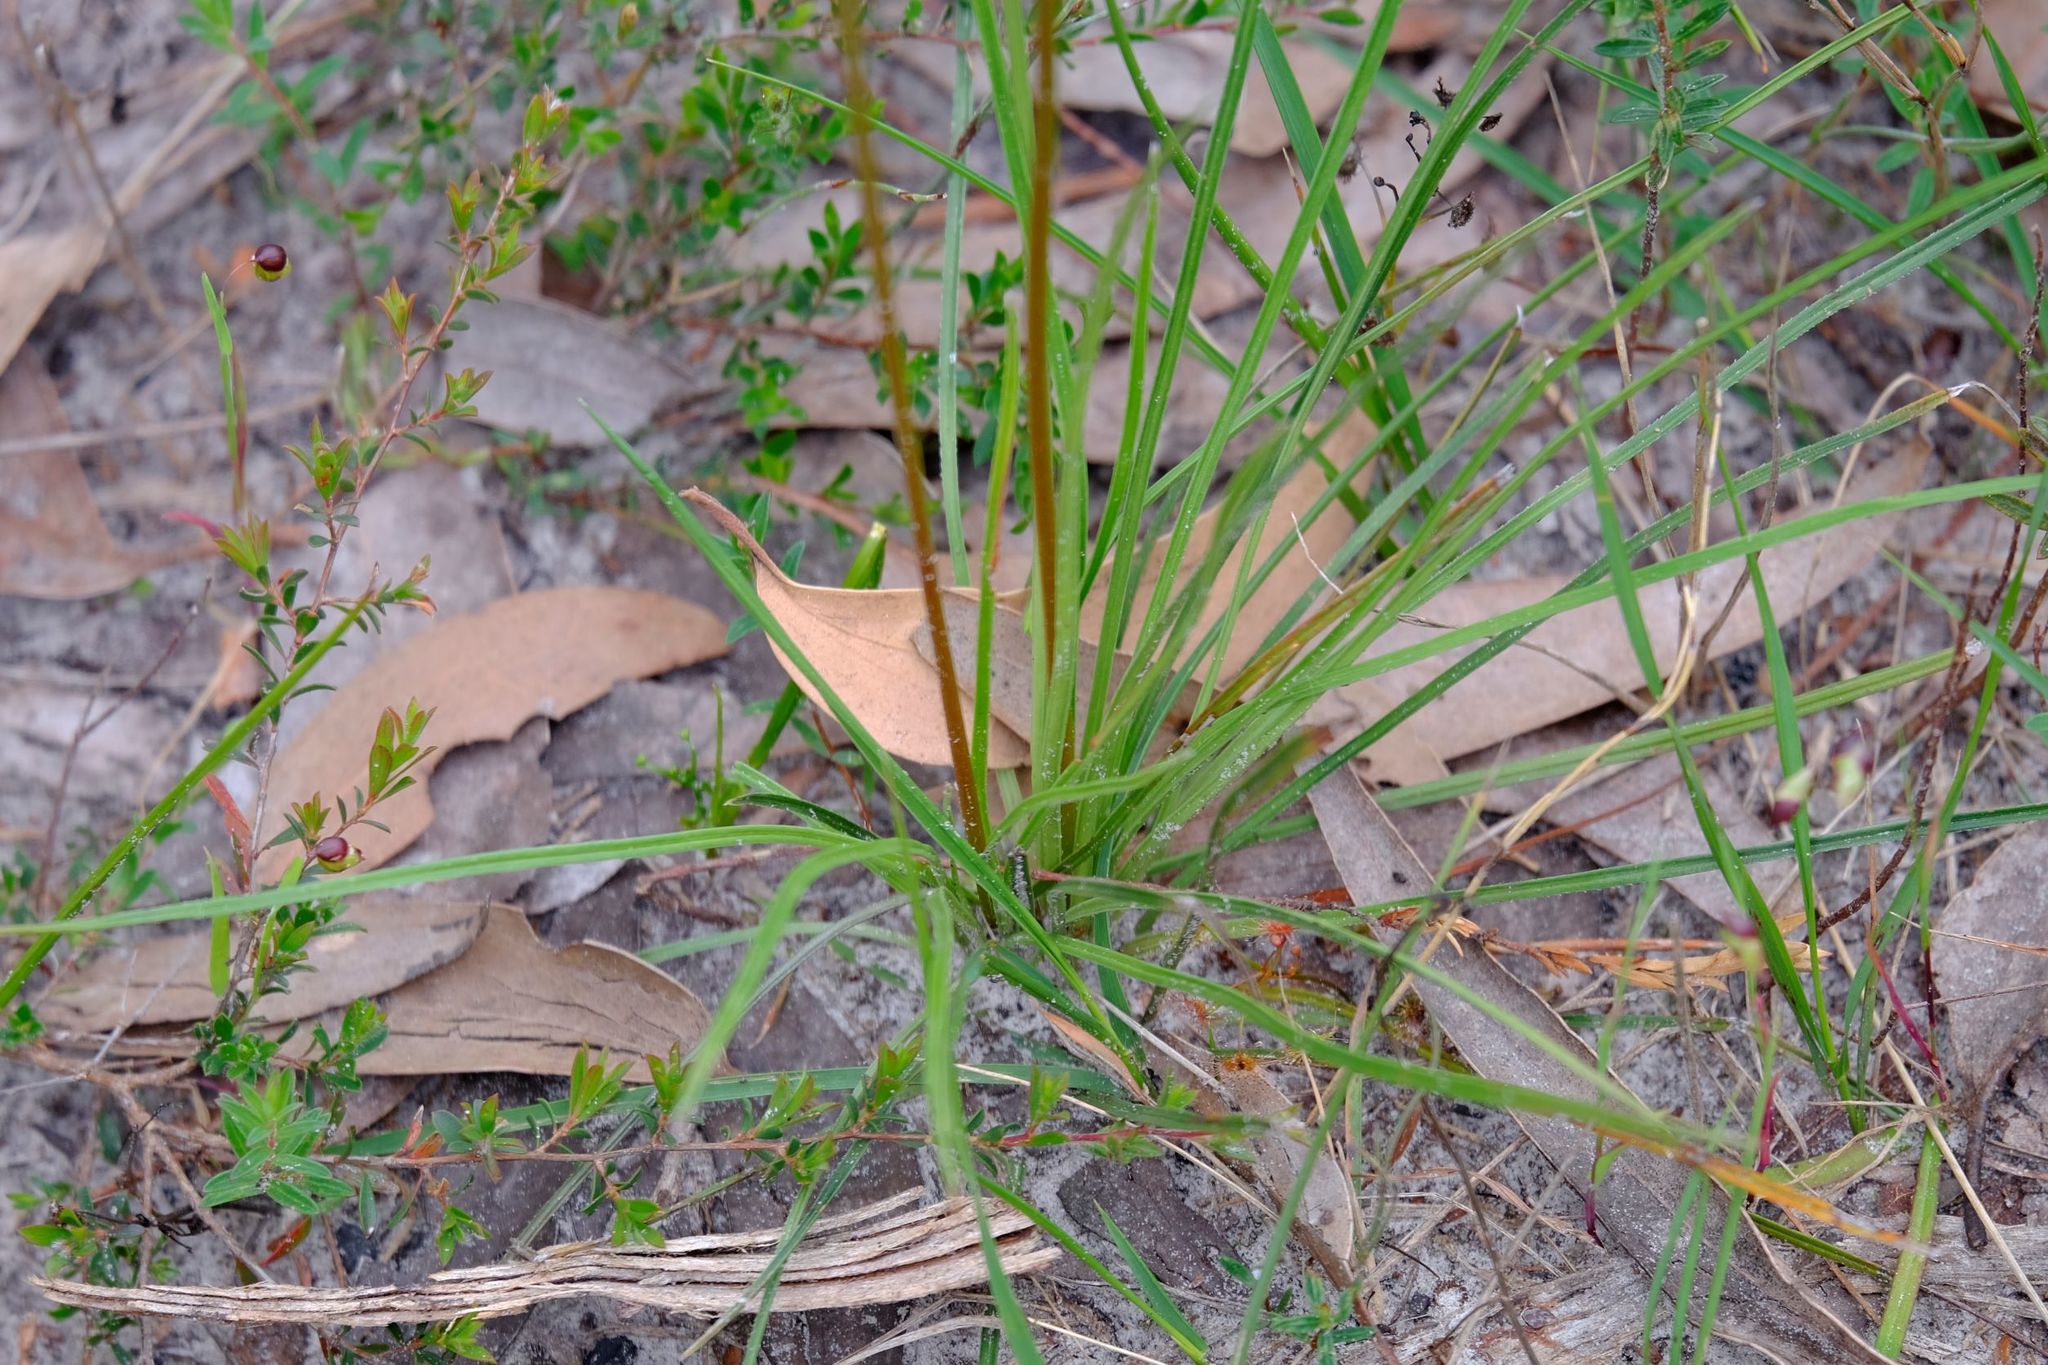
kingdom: Plantae
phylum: Tracheophyta
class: Magnoliopsida
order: Asterales
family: Stylidiaceae
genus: Stylidium
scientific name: Stylidium graminifolium
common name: Grass triggerplant
